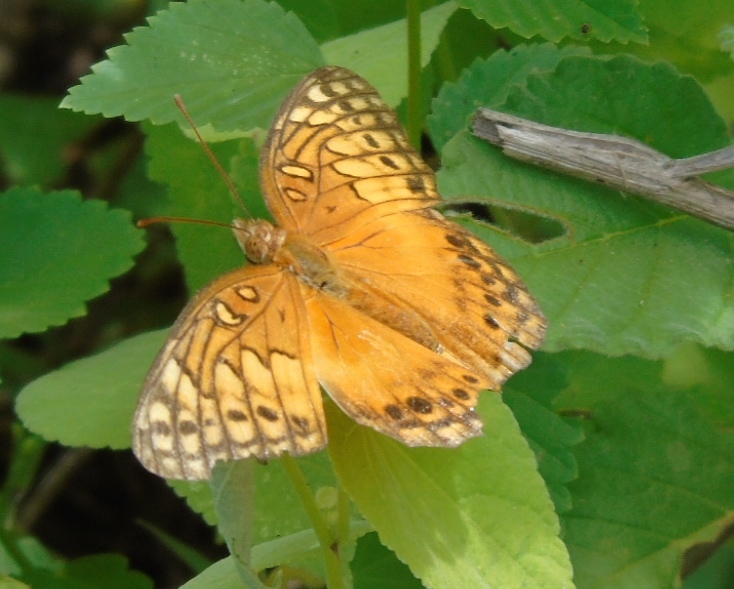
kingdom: Animalia
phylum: Arthropoda
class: Insecta
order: Lepidoptera
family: Nymphalidae
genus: Euptoieta
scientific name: Euptoieta hegesia
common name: Mexican fritillary
